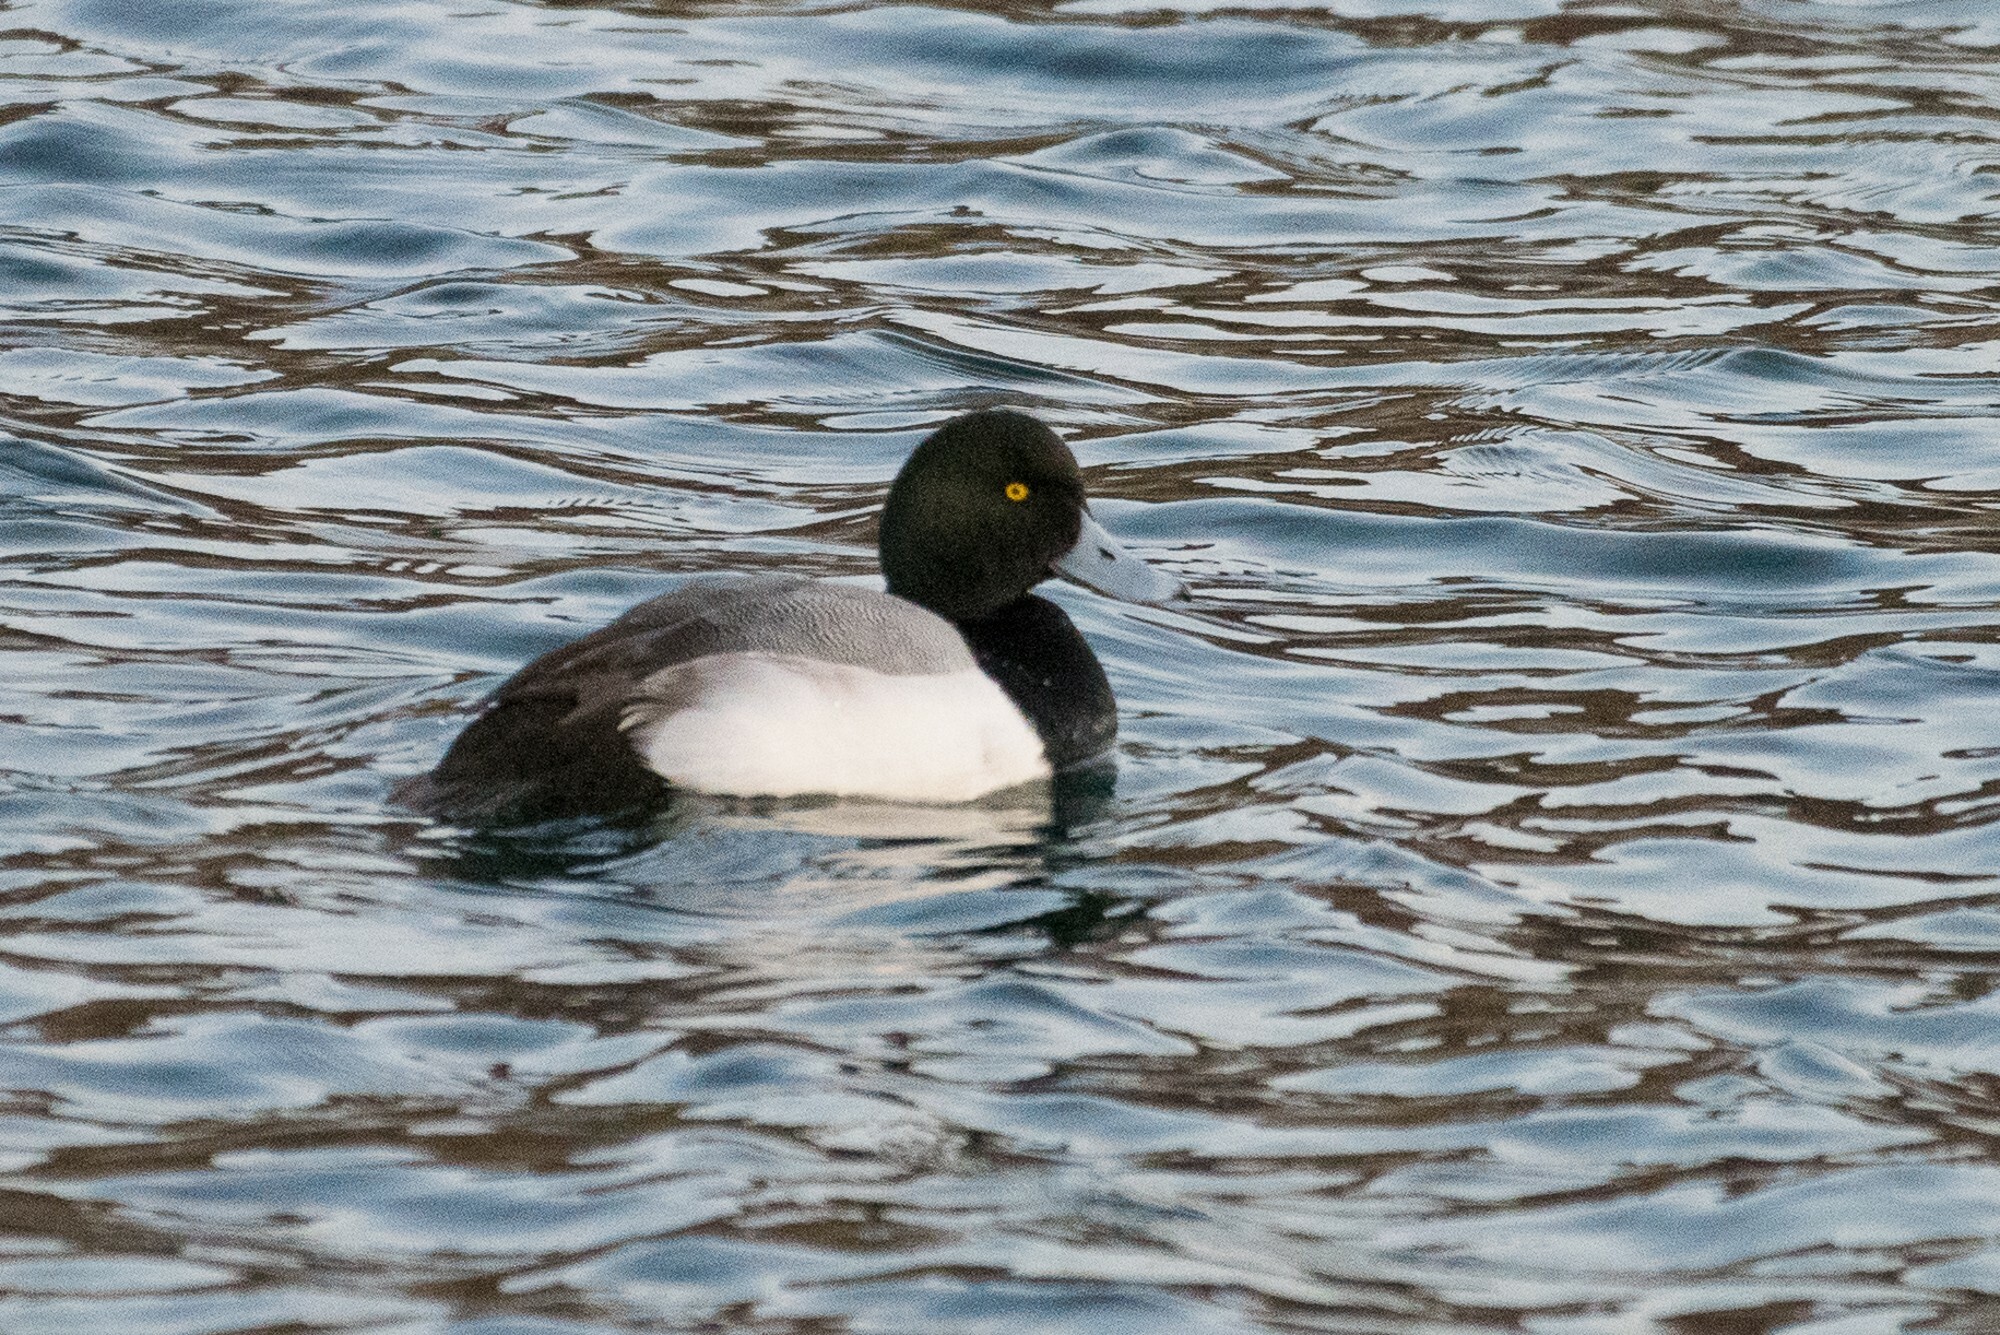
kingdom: Animalia
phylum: Chordata
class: Aves
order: Anseriformes
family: Anatidae
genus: Aythya
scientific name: Aythya marila
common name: Greater scaup
